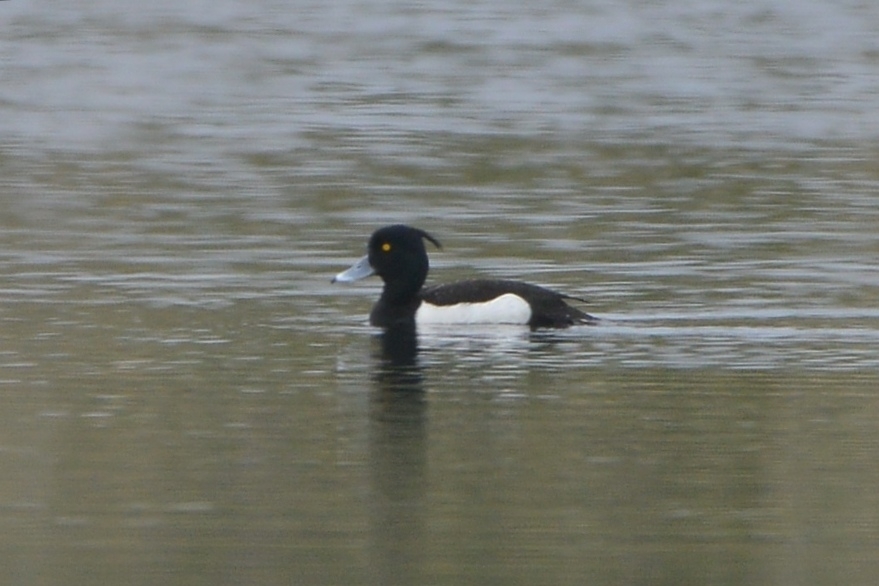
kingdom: Animalia
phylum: Chordata
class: Aves
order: Anseriformes
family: Anatidae
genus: Aythya
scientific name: Aythya fuligula
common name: Tufted duck
